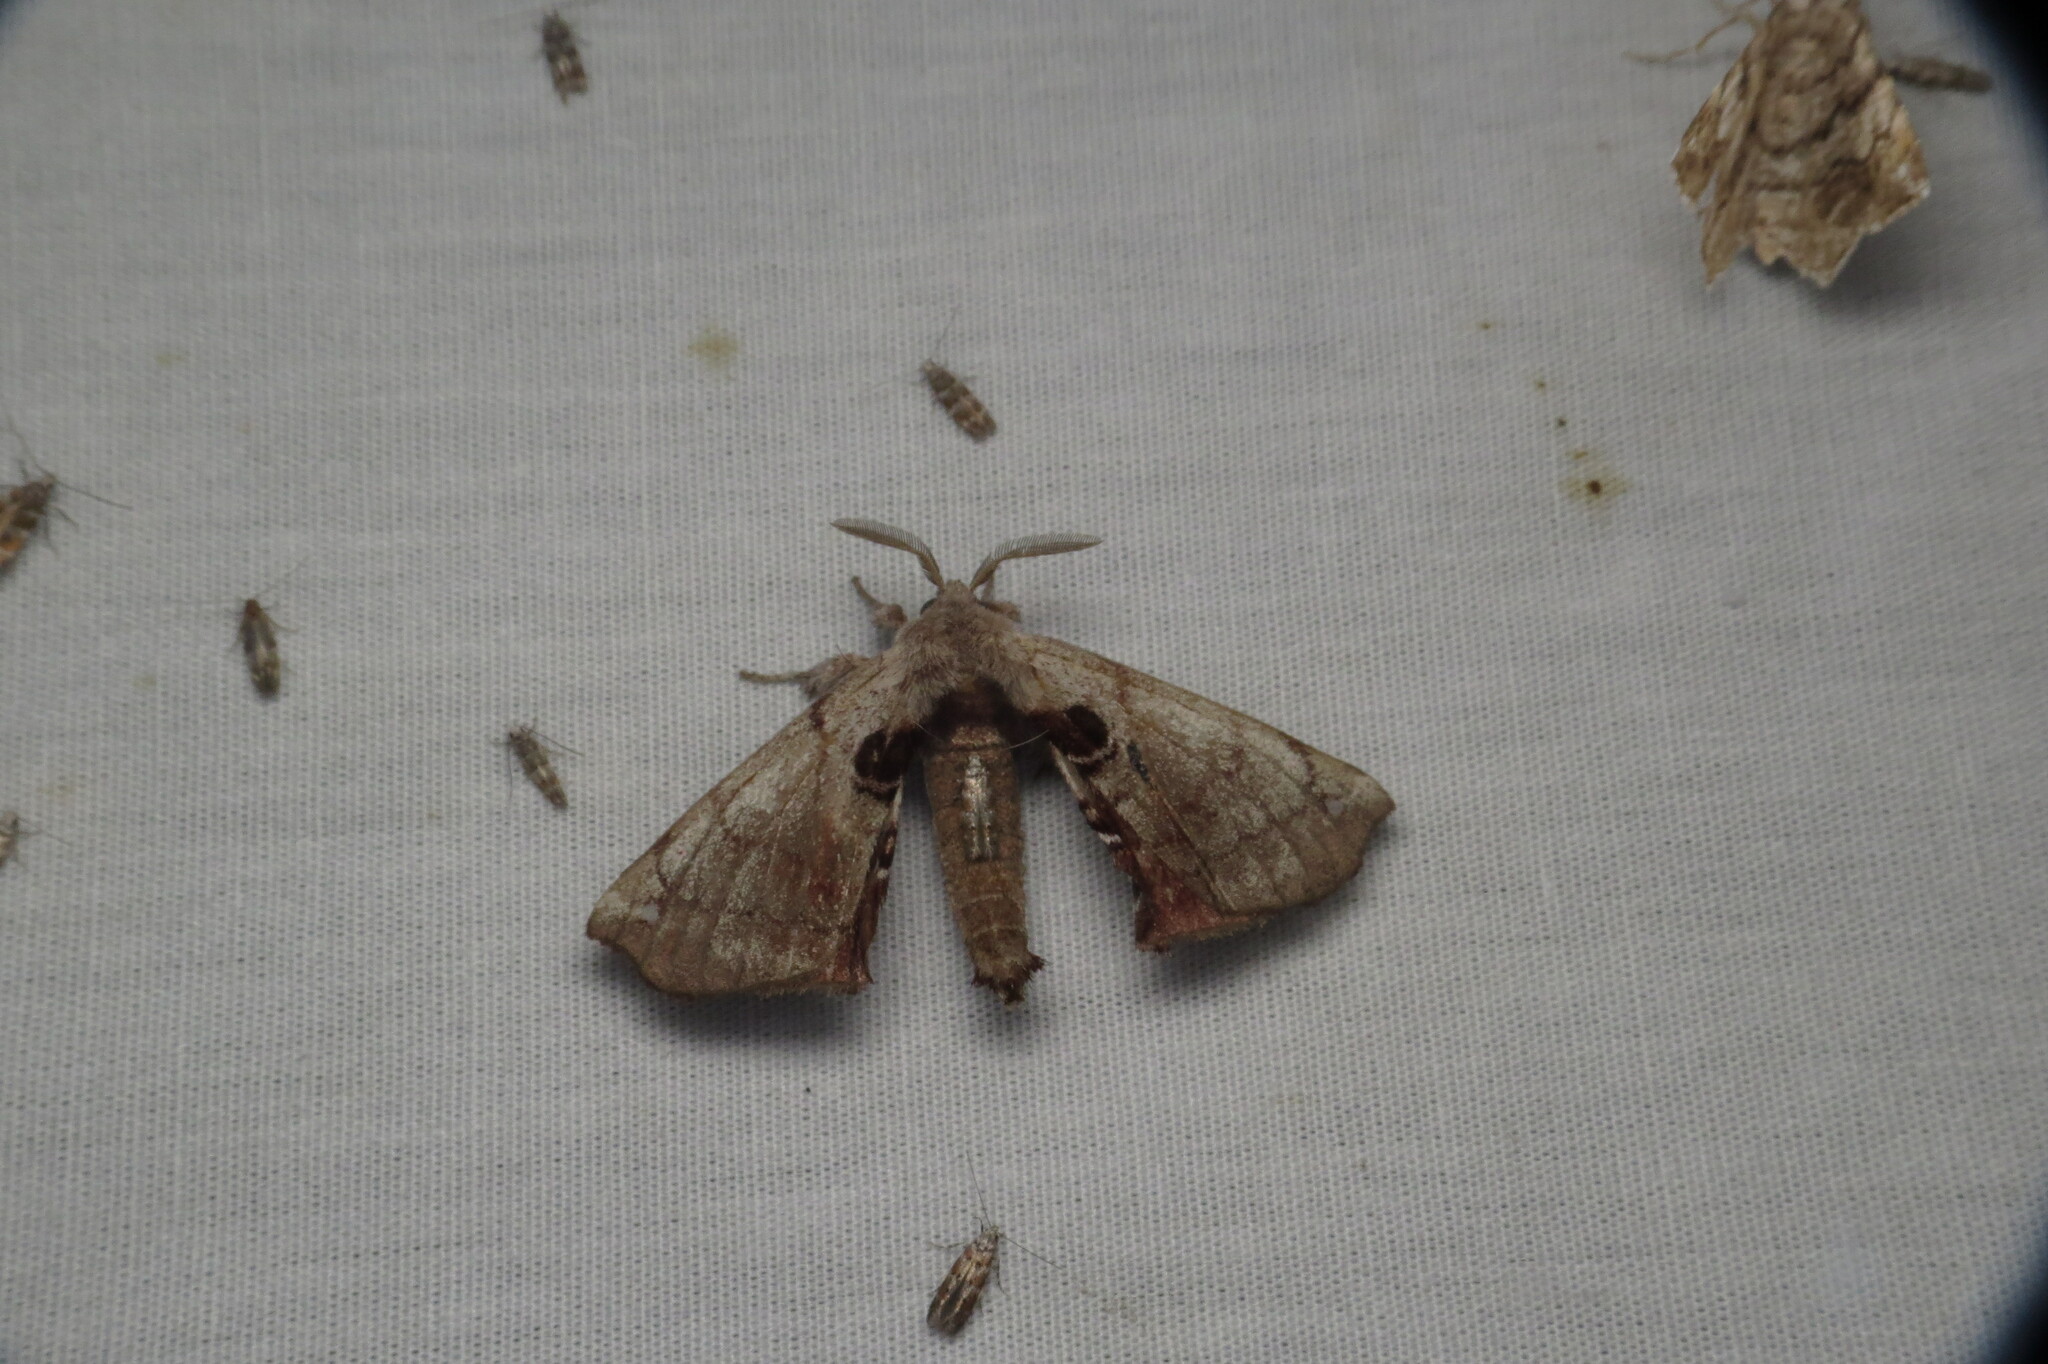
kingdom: Animalia
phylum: Arthropoda
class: Insecta
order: Lepidoptera
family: Apatelodidae
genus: Hygrochroa
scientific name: Hygrochroa Apatelodes torrefacta
